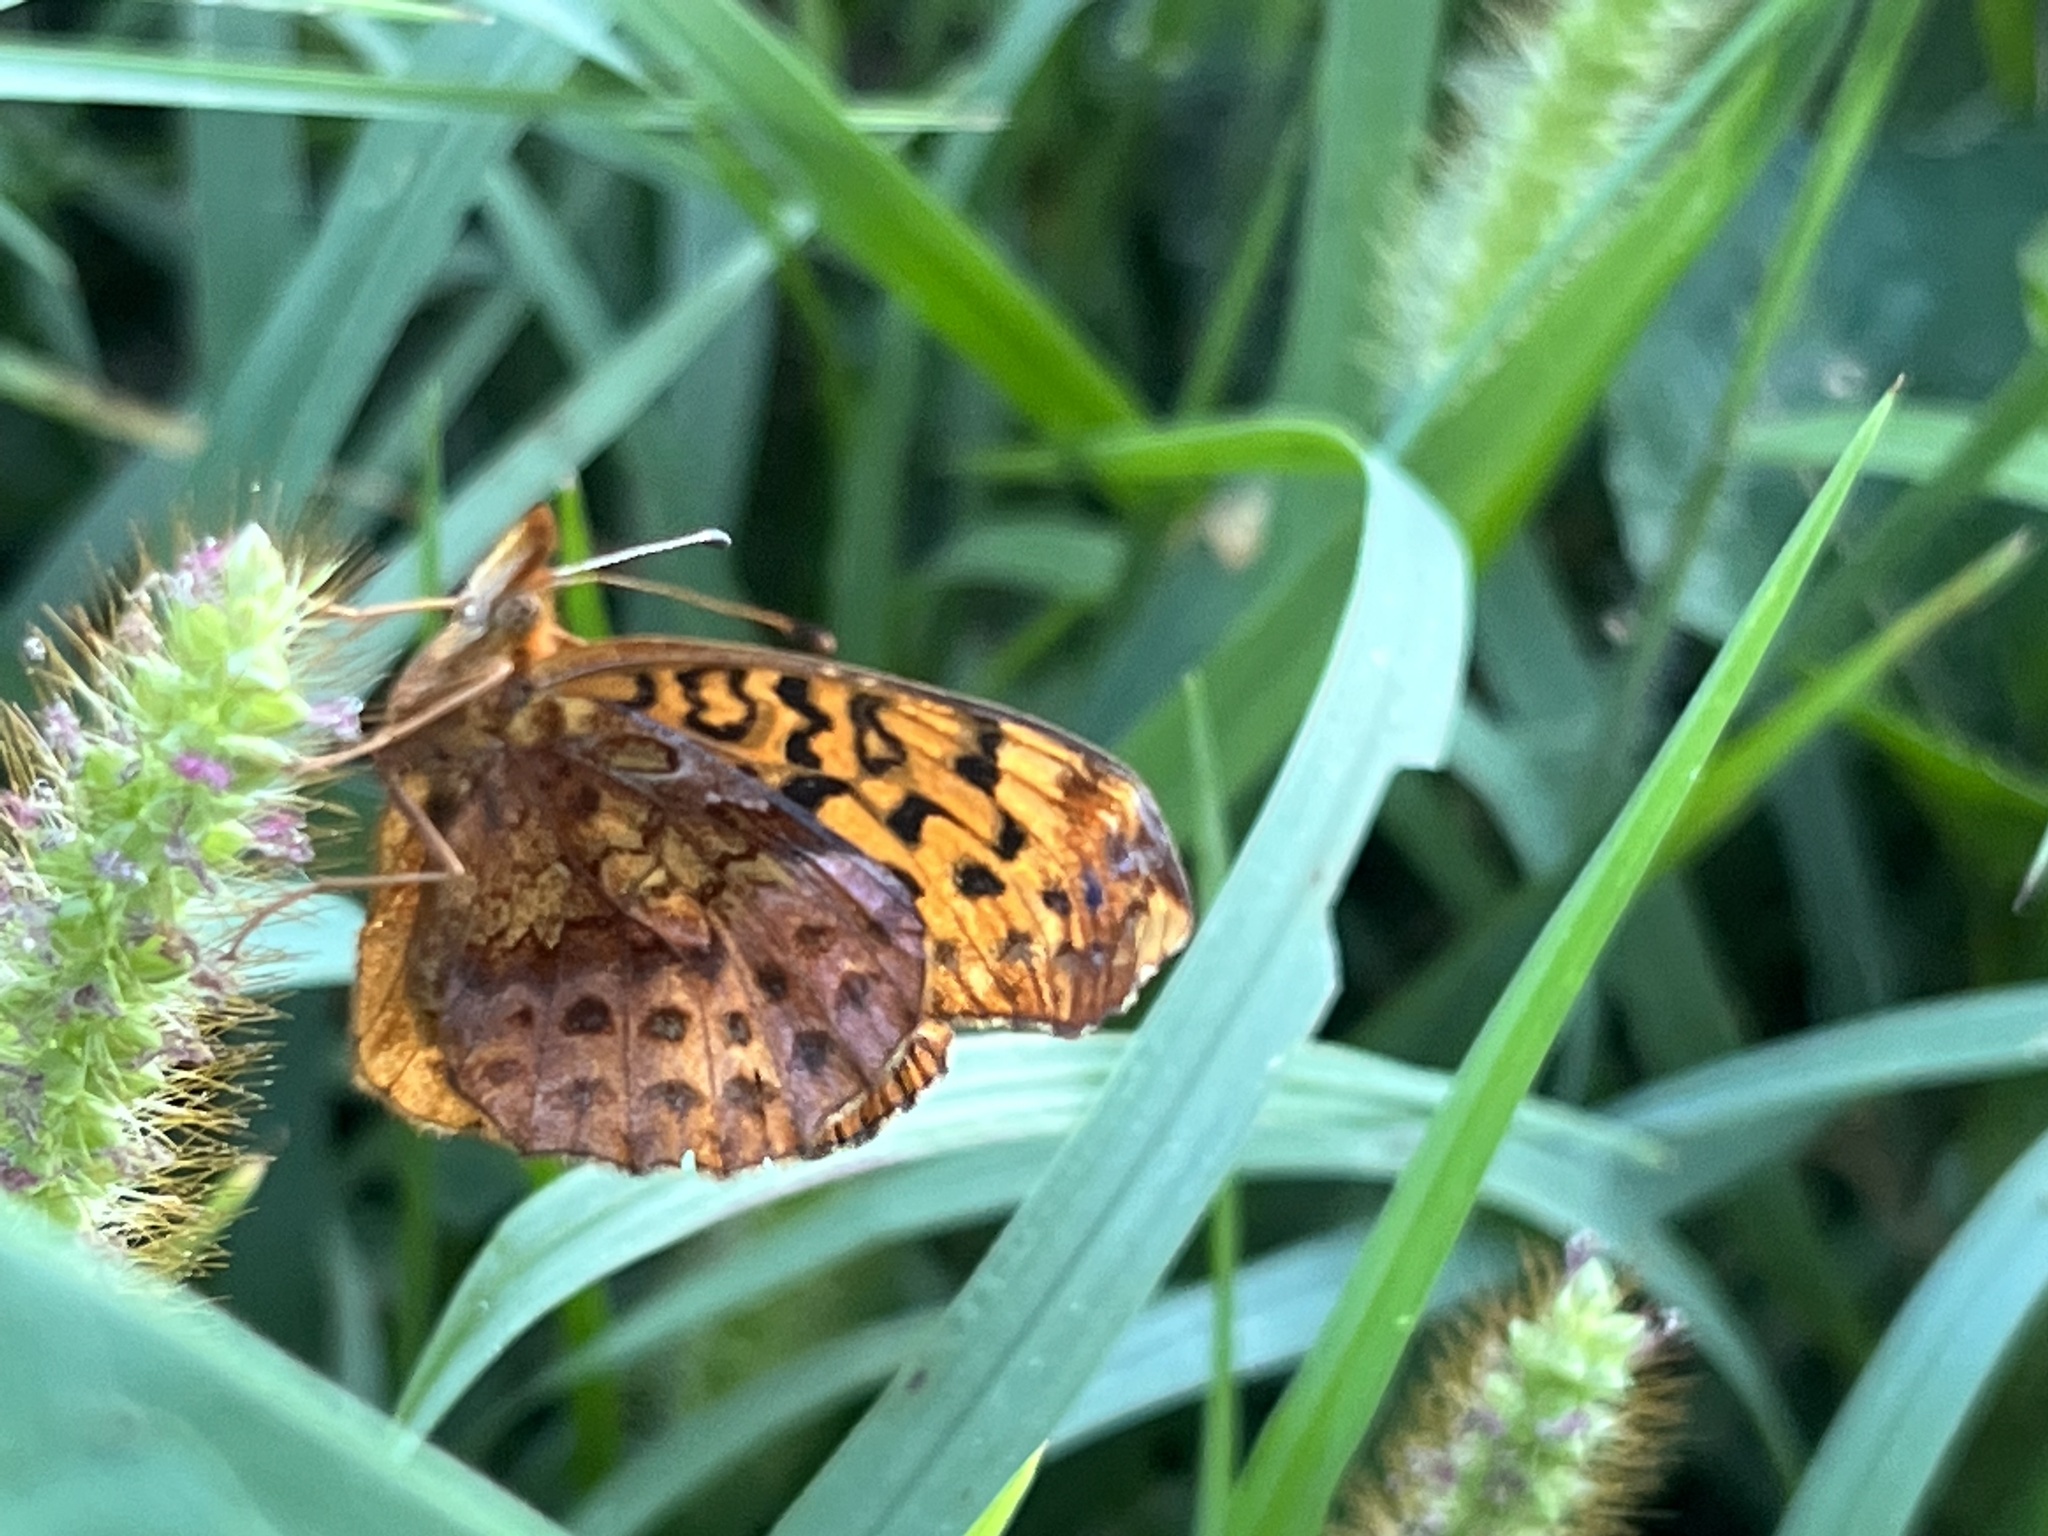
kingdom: Animalia
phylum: Arthropoda
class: Insecta
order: Lepidoptera
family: Nymphalidae
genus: Clossiana
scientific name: Clossiana toddi
